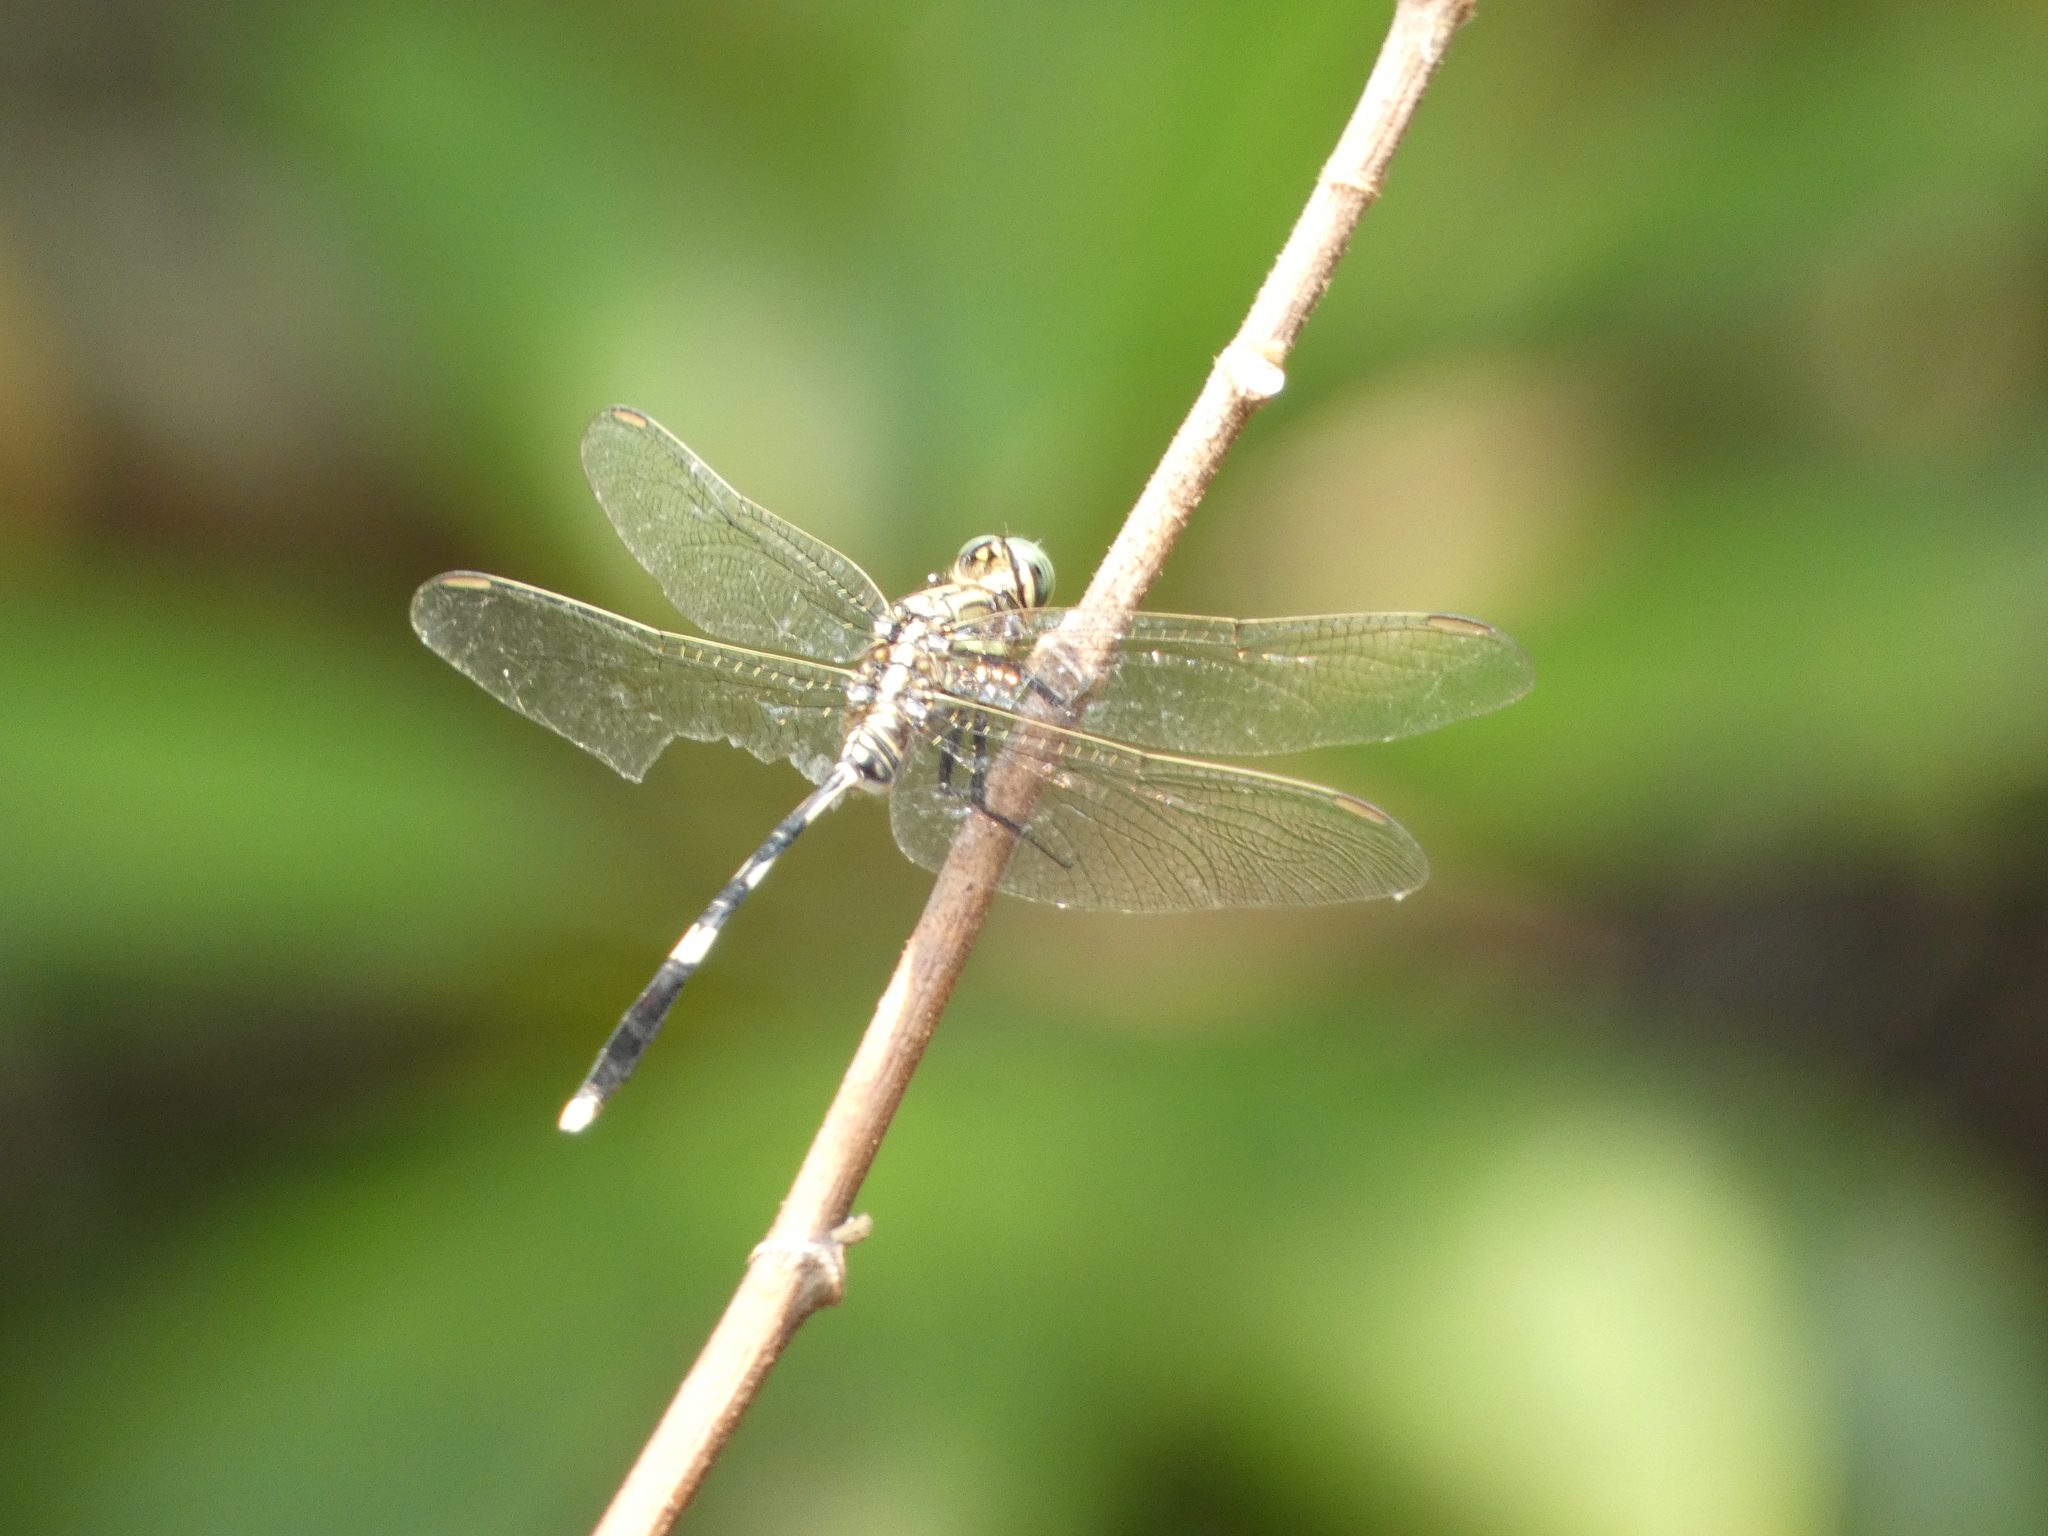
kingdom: Animalia
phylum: Arthropoda
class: Insecta
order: Odonata
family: Libellulidae
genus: Orthetrum
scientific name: Orthetrum sabina
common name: Slender skimmer
